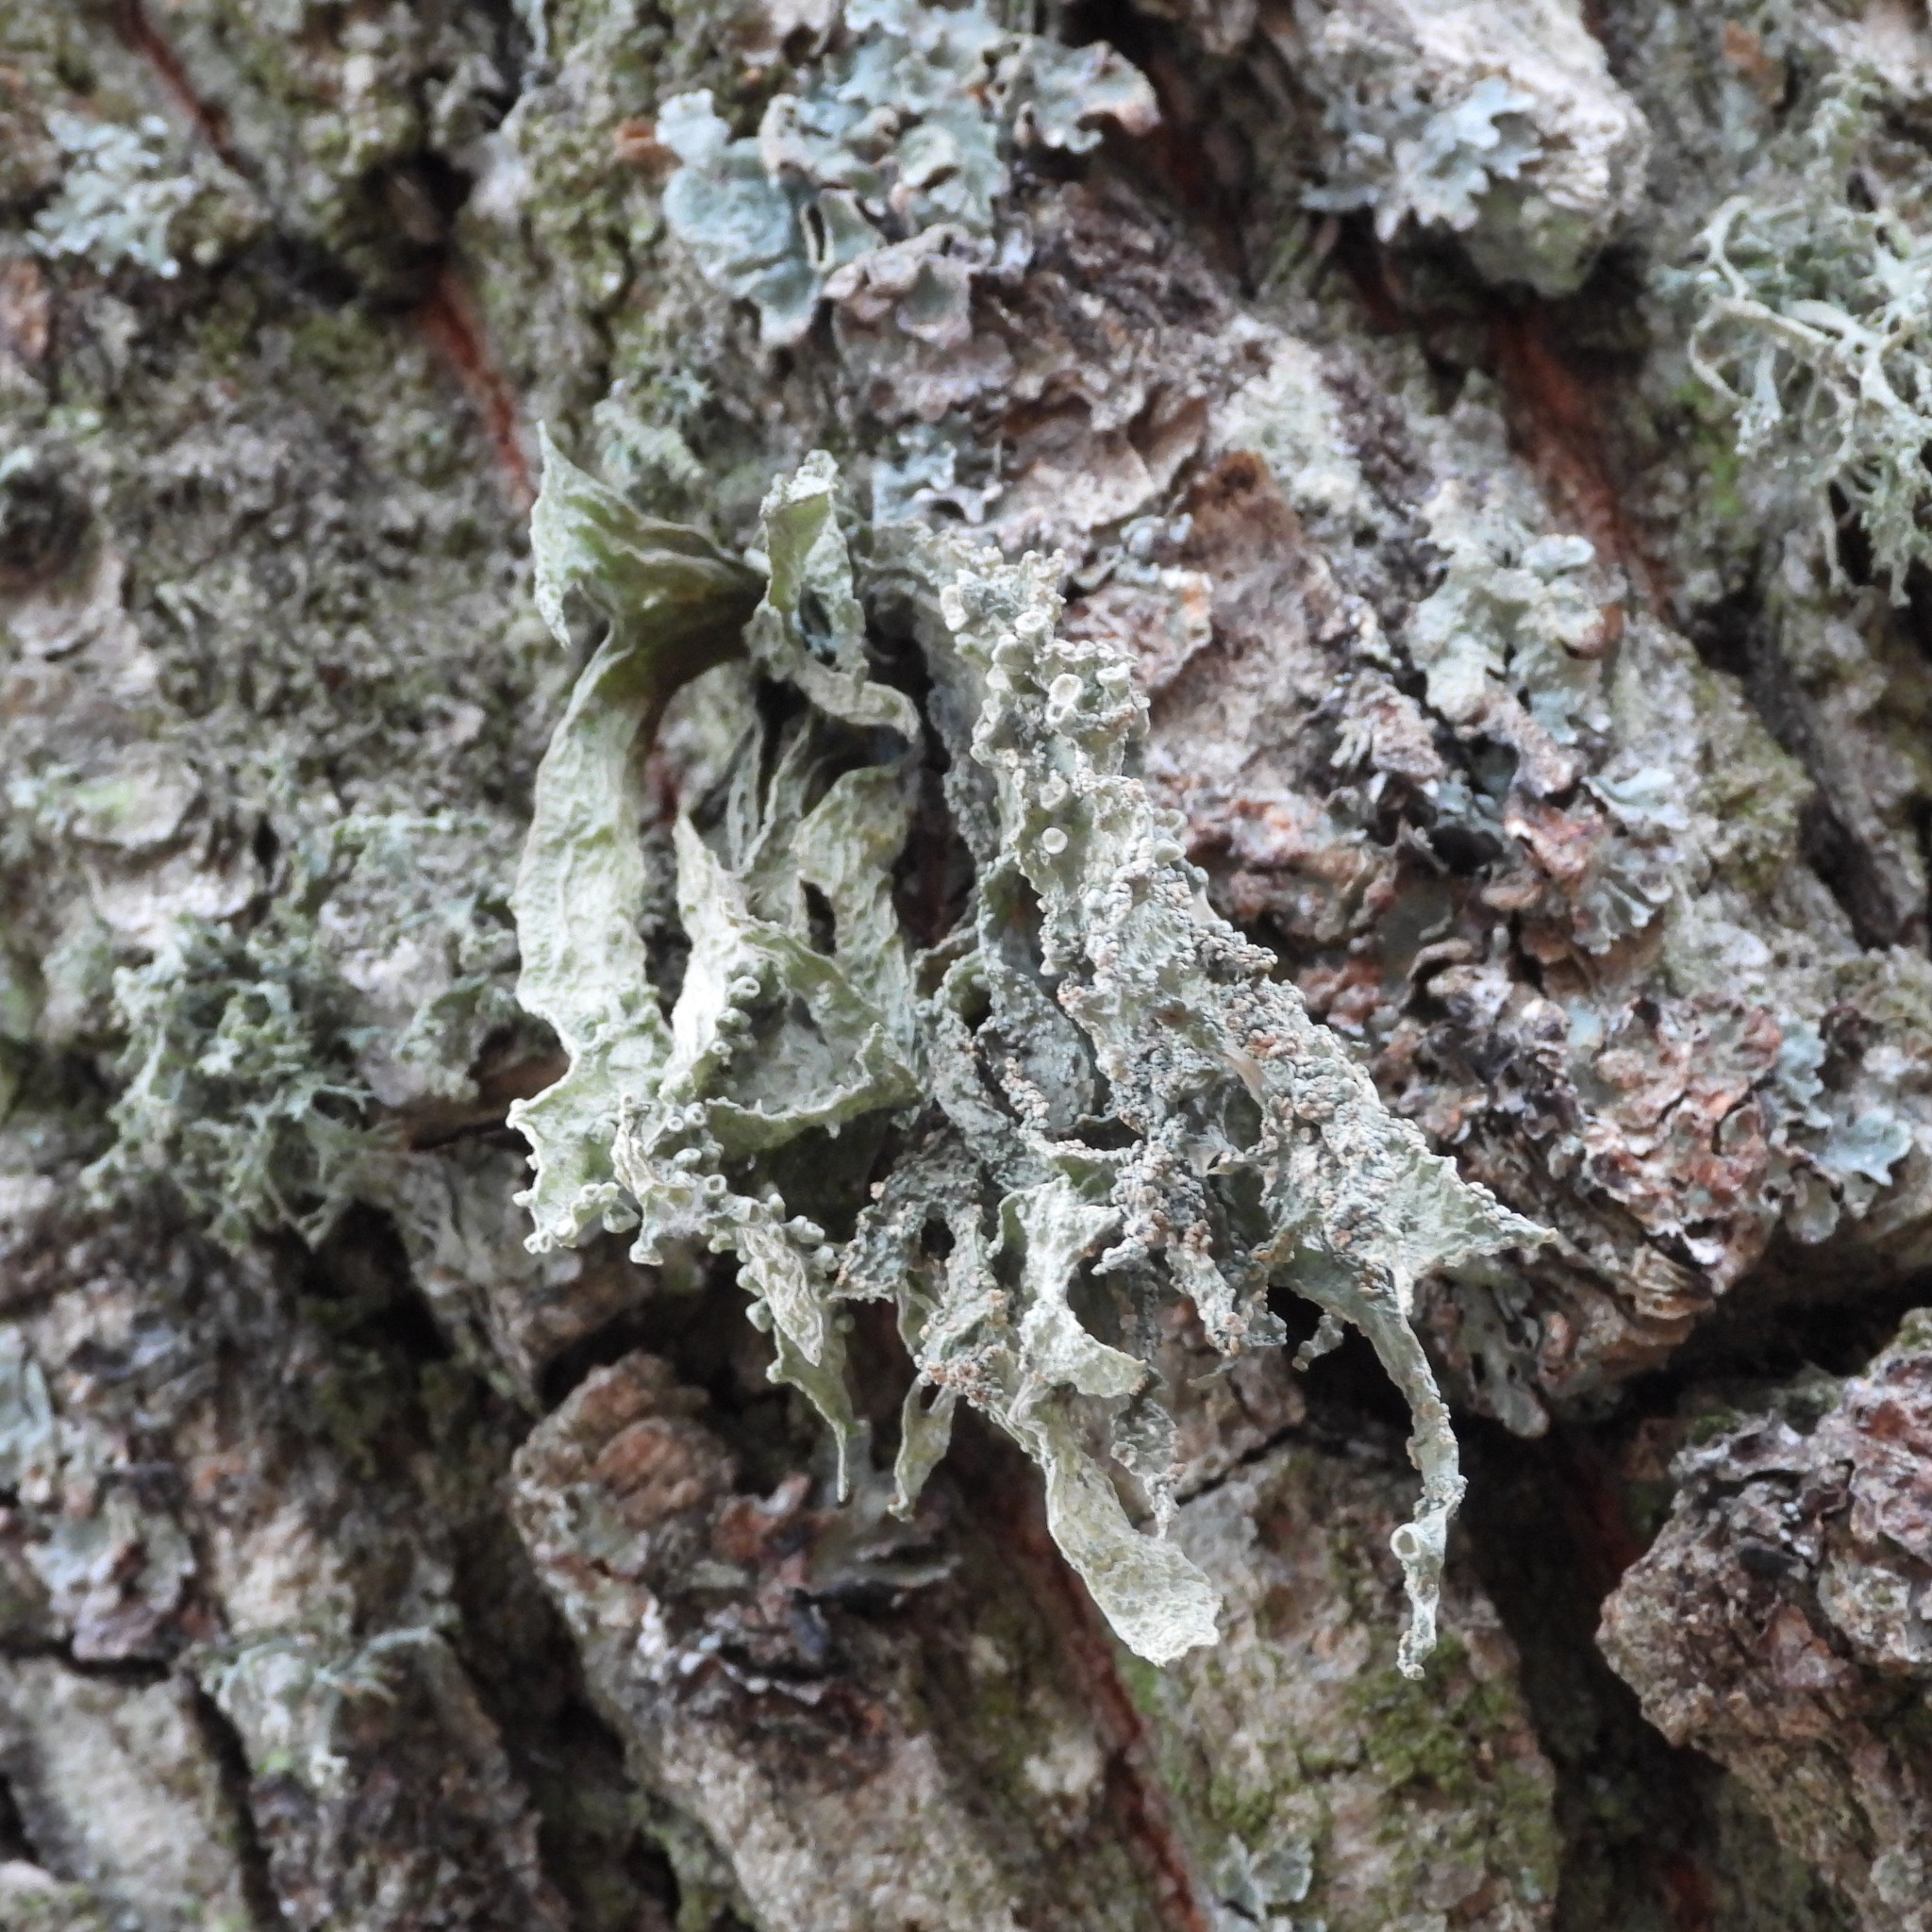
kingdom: Fungi
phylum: Ascomycota
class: Lecanoromycetes
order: Lecanorales
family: Ramalinaceae
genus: Ramalina
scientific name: Ramalina fraxinea
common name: Cartilage lichen
